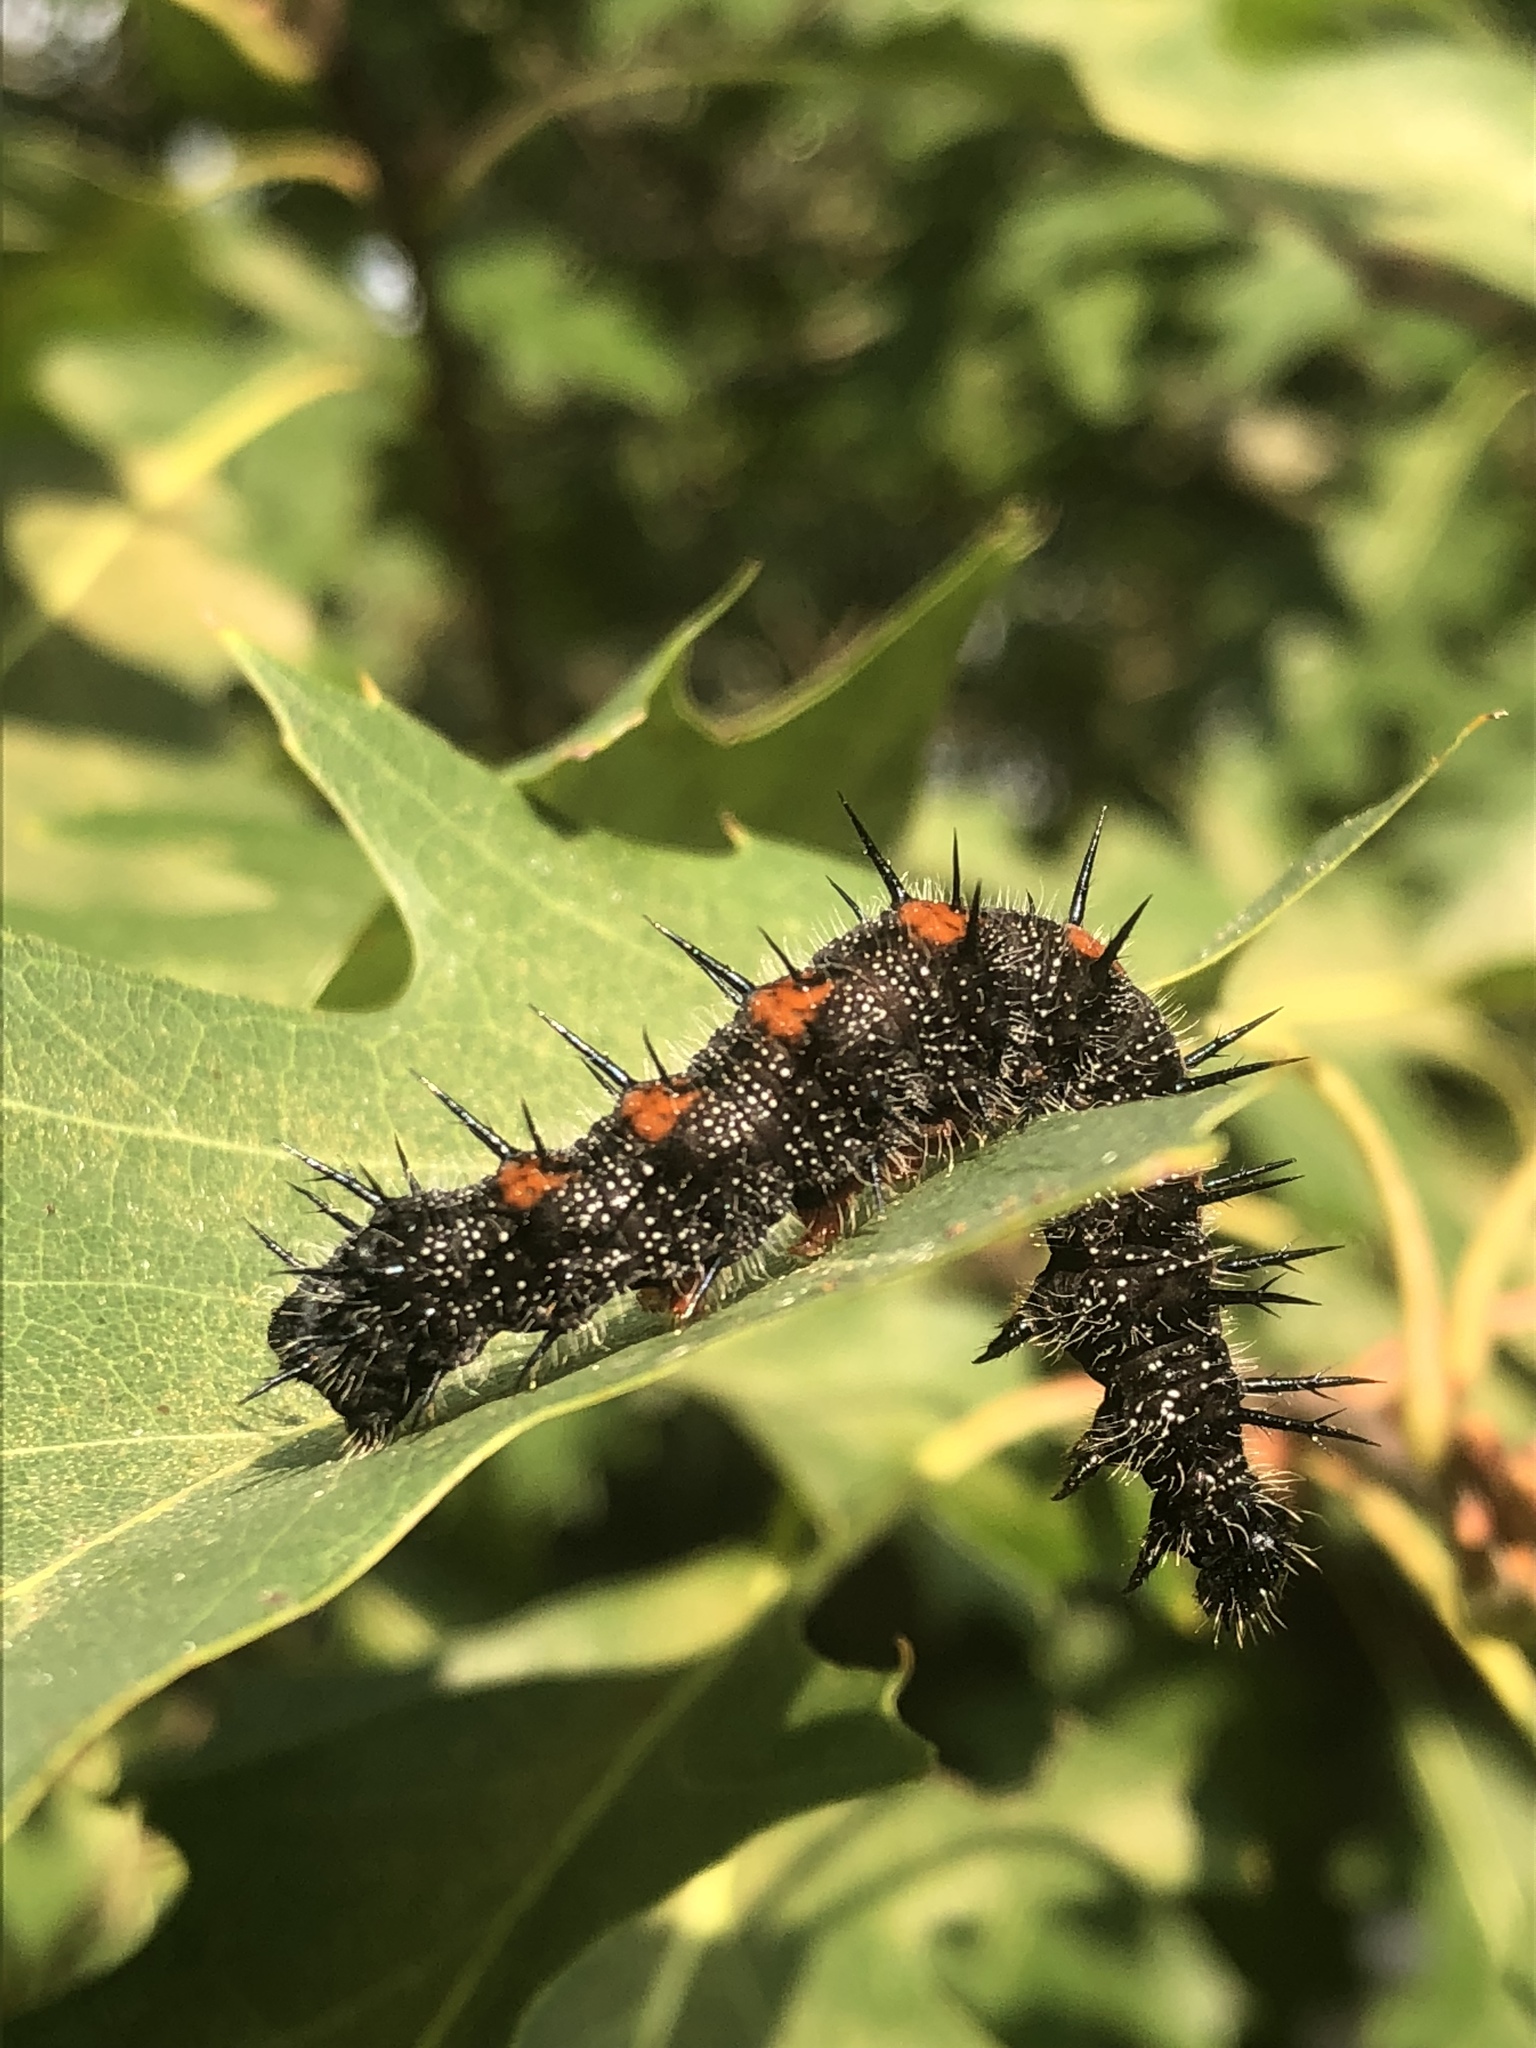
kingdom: Animalia
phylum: Arthropoda
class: Insecta
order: Lepidoptera
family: Nymphalidae
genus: Nymphalis
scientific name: Nymphalis antiopa
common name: Camberwell beauty
